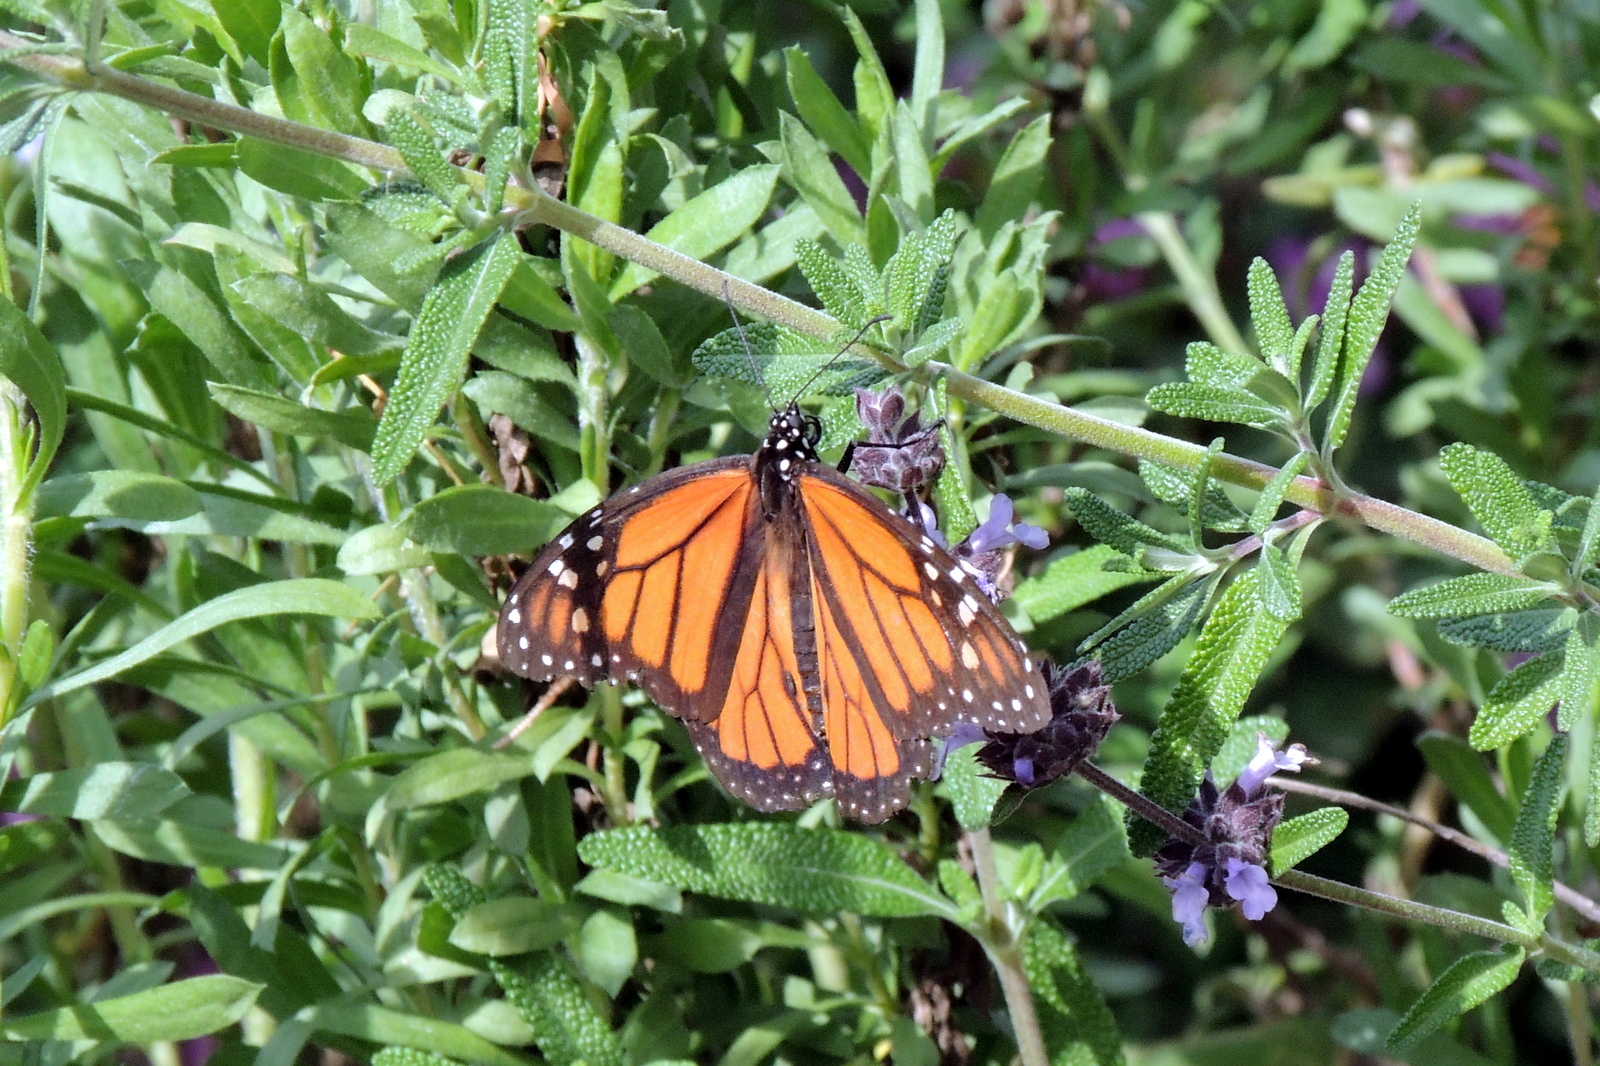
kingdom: Animalia
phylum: Arthropoda
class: Insecta
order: Lepidoptera
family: Nymphalidae
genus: Danaus
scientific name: Danaus plexippus
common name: Monarch
